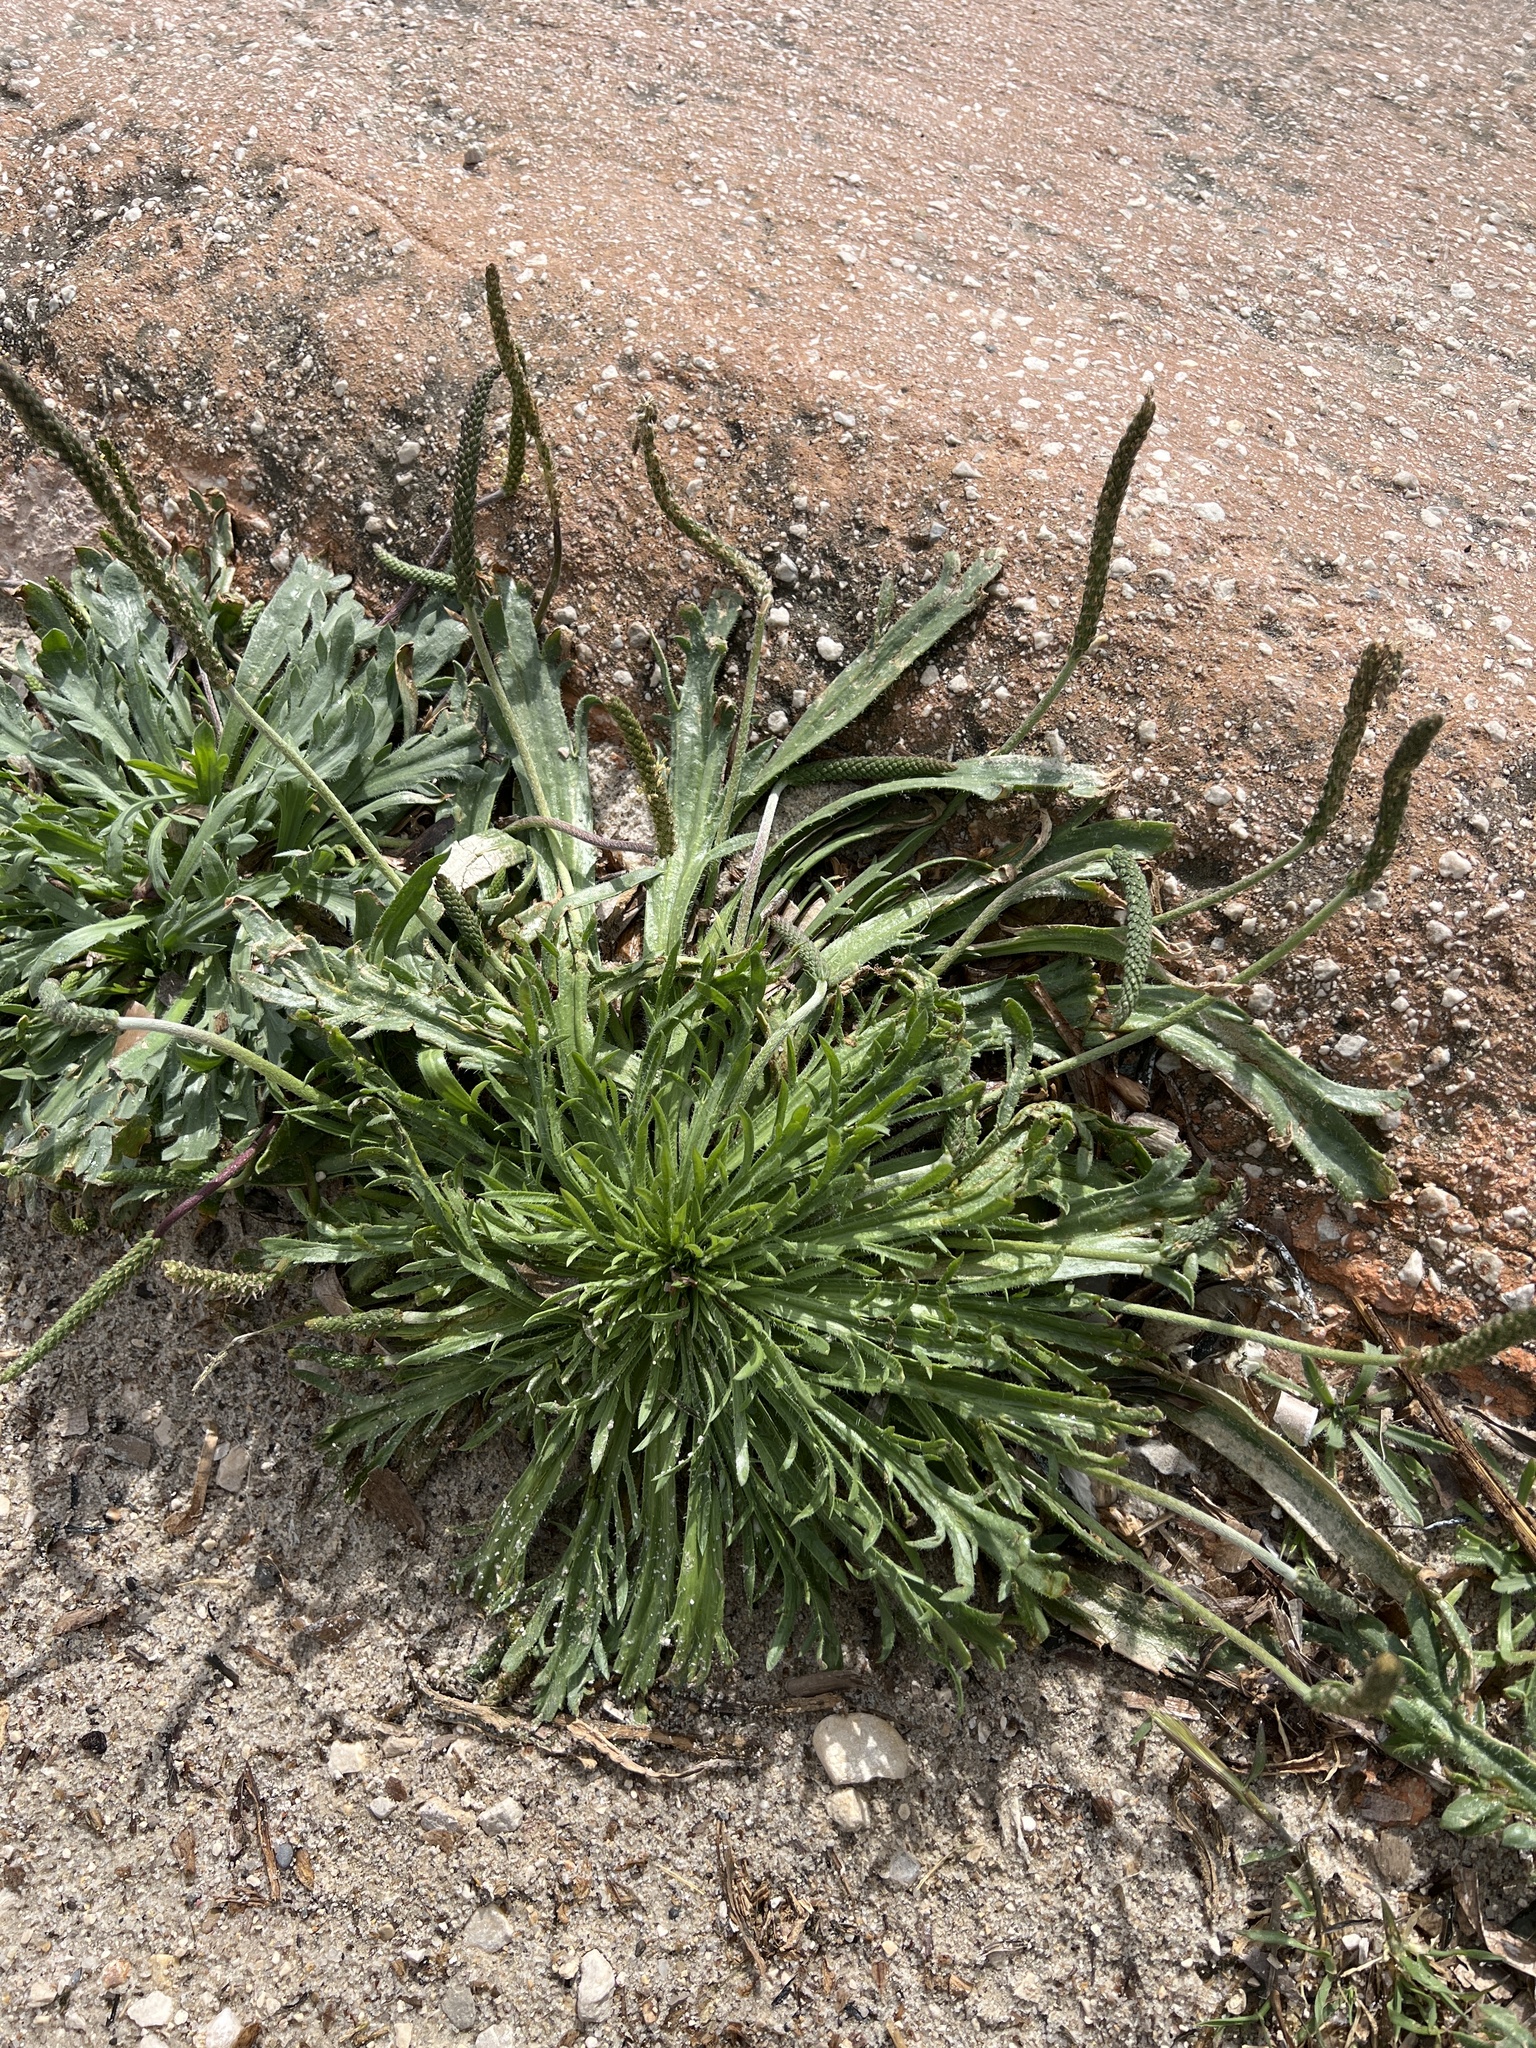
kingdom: Plantae
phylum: Tracheophyta
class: Magnoliopsida
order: Lamiales
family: Plantaginaceae
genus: Plantago
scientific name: Plantago coronopus
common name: Buck's-horn plantain
